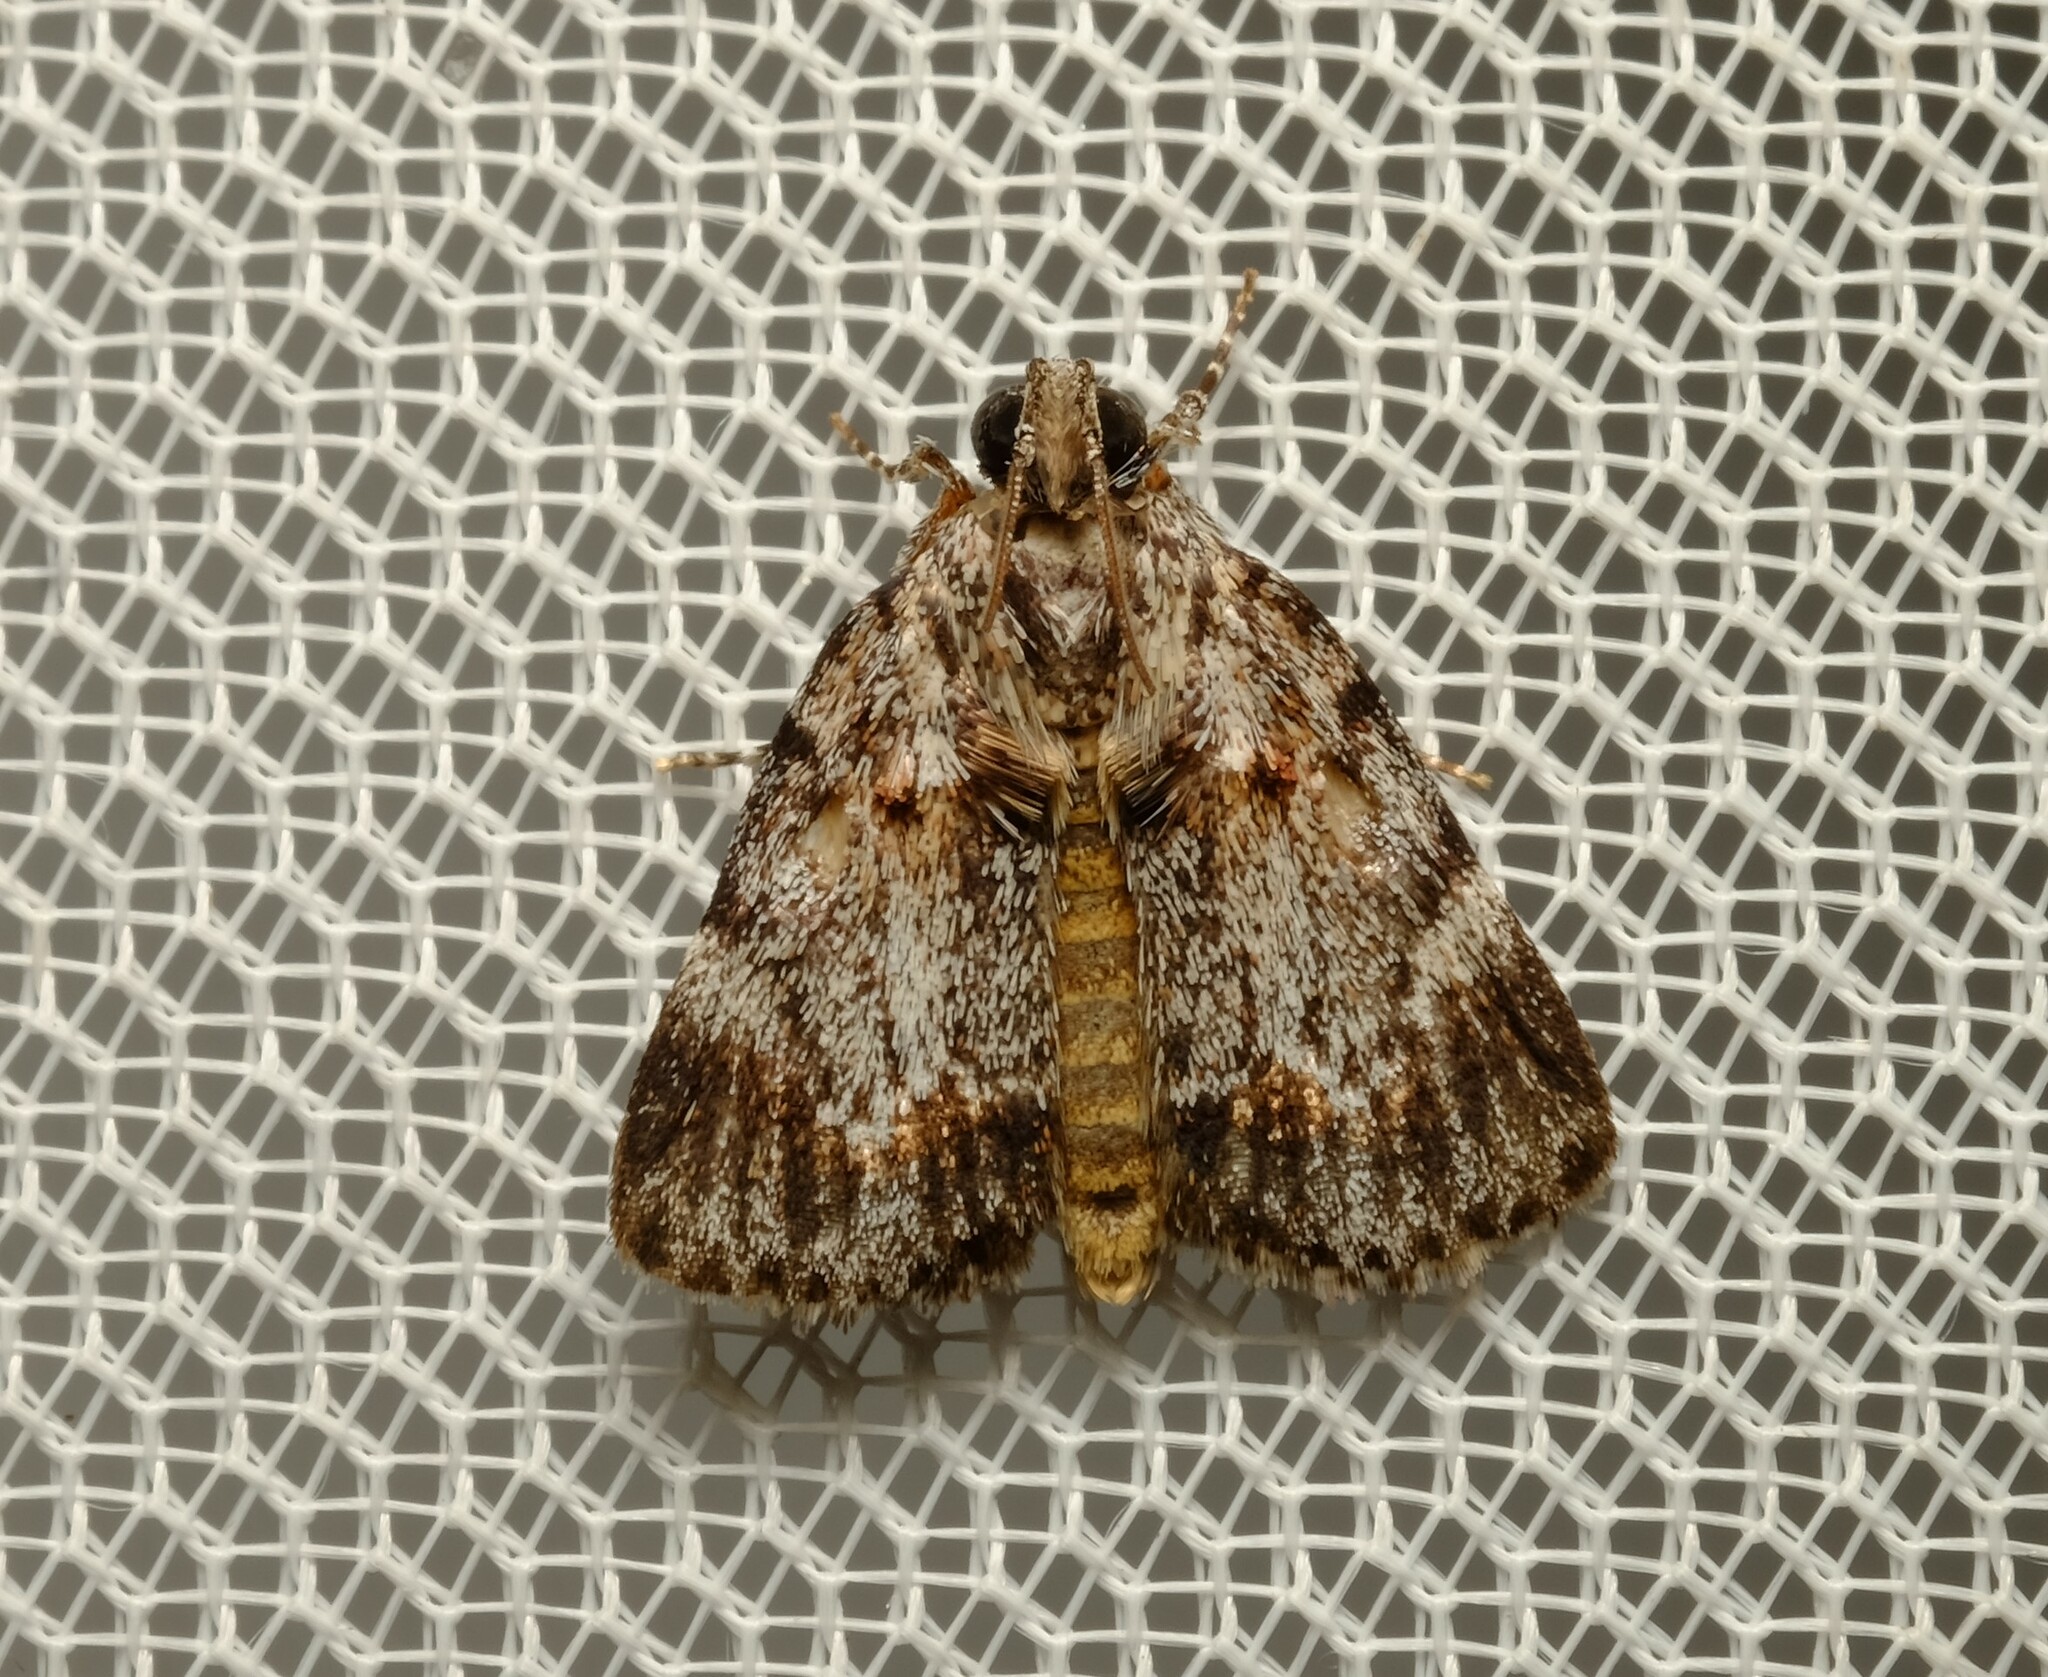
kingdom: Animalia
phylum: Arthropoda
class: Insecta
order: Lepidoptera
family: Pyralidae
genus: Spectrotrota
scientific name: Spectrotrota fimbrialis
